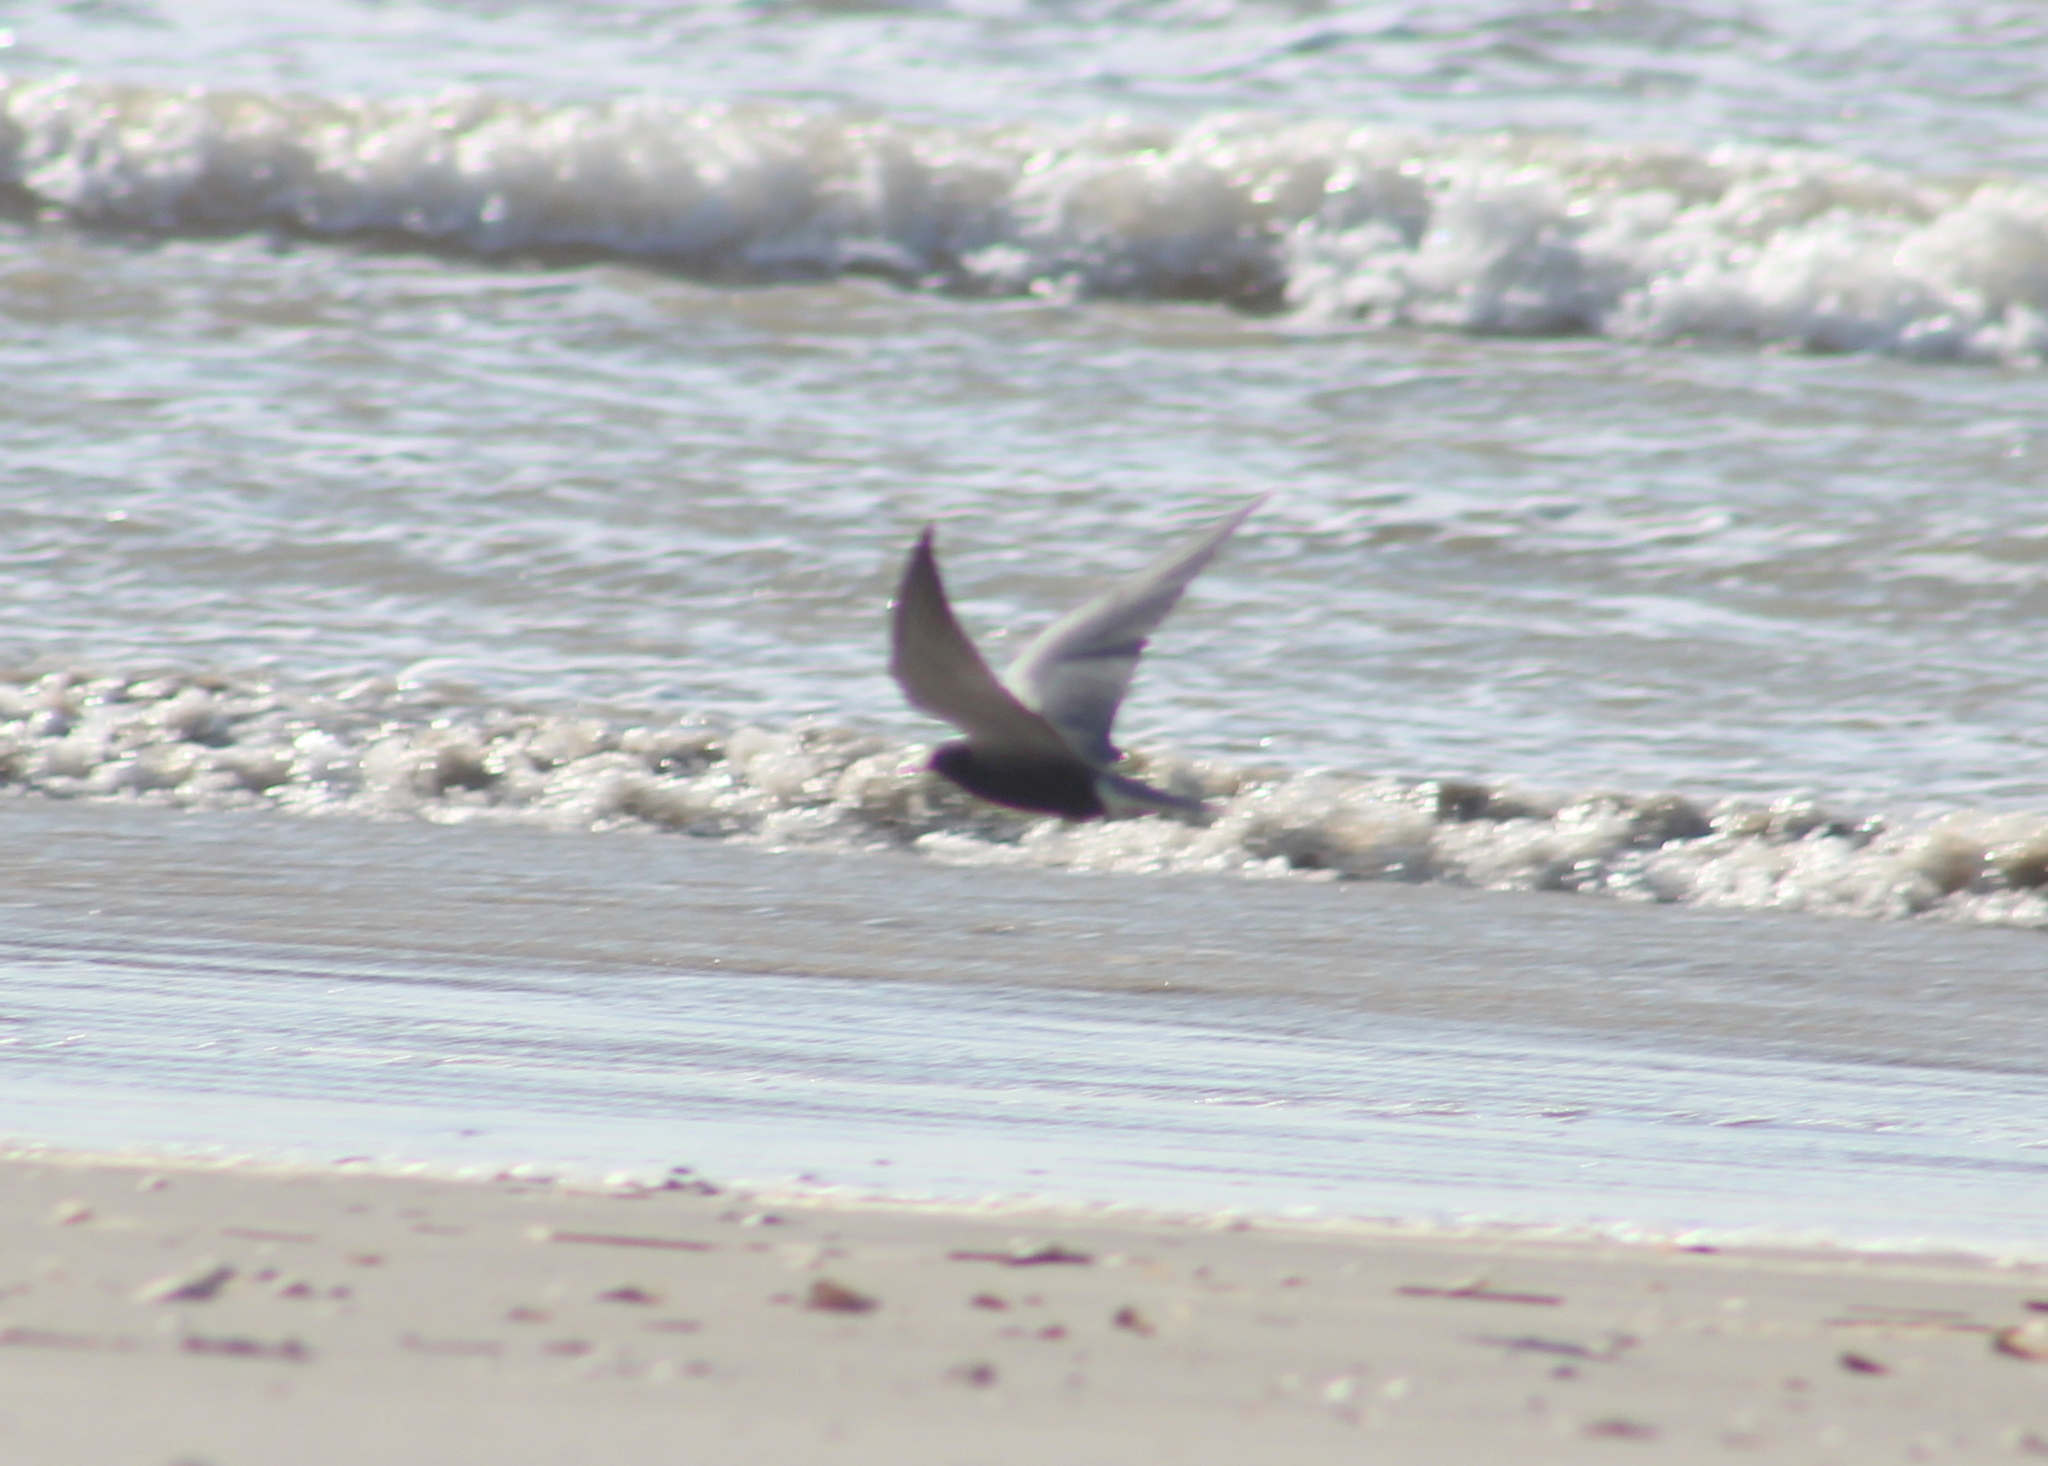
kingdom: Animalia
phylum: Chordata
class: Aves
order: Charadriiformes
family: Laridae
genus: Chlidonias
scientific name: Chlidonias niger
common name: Black tern
